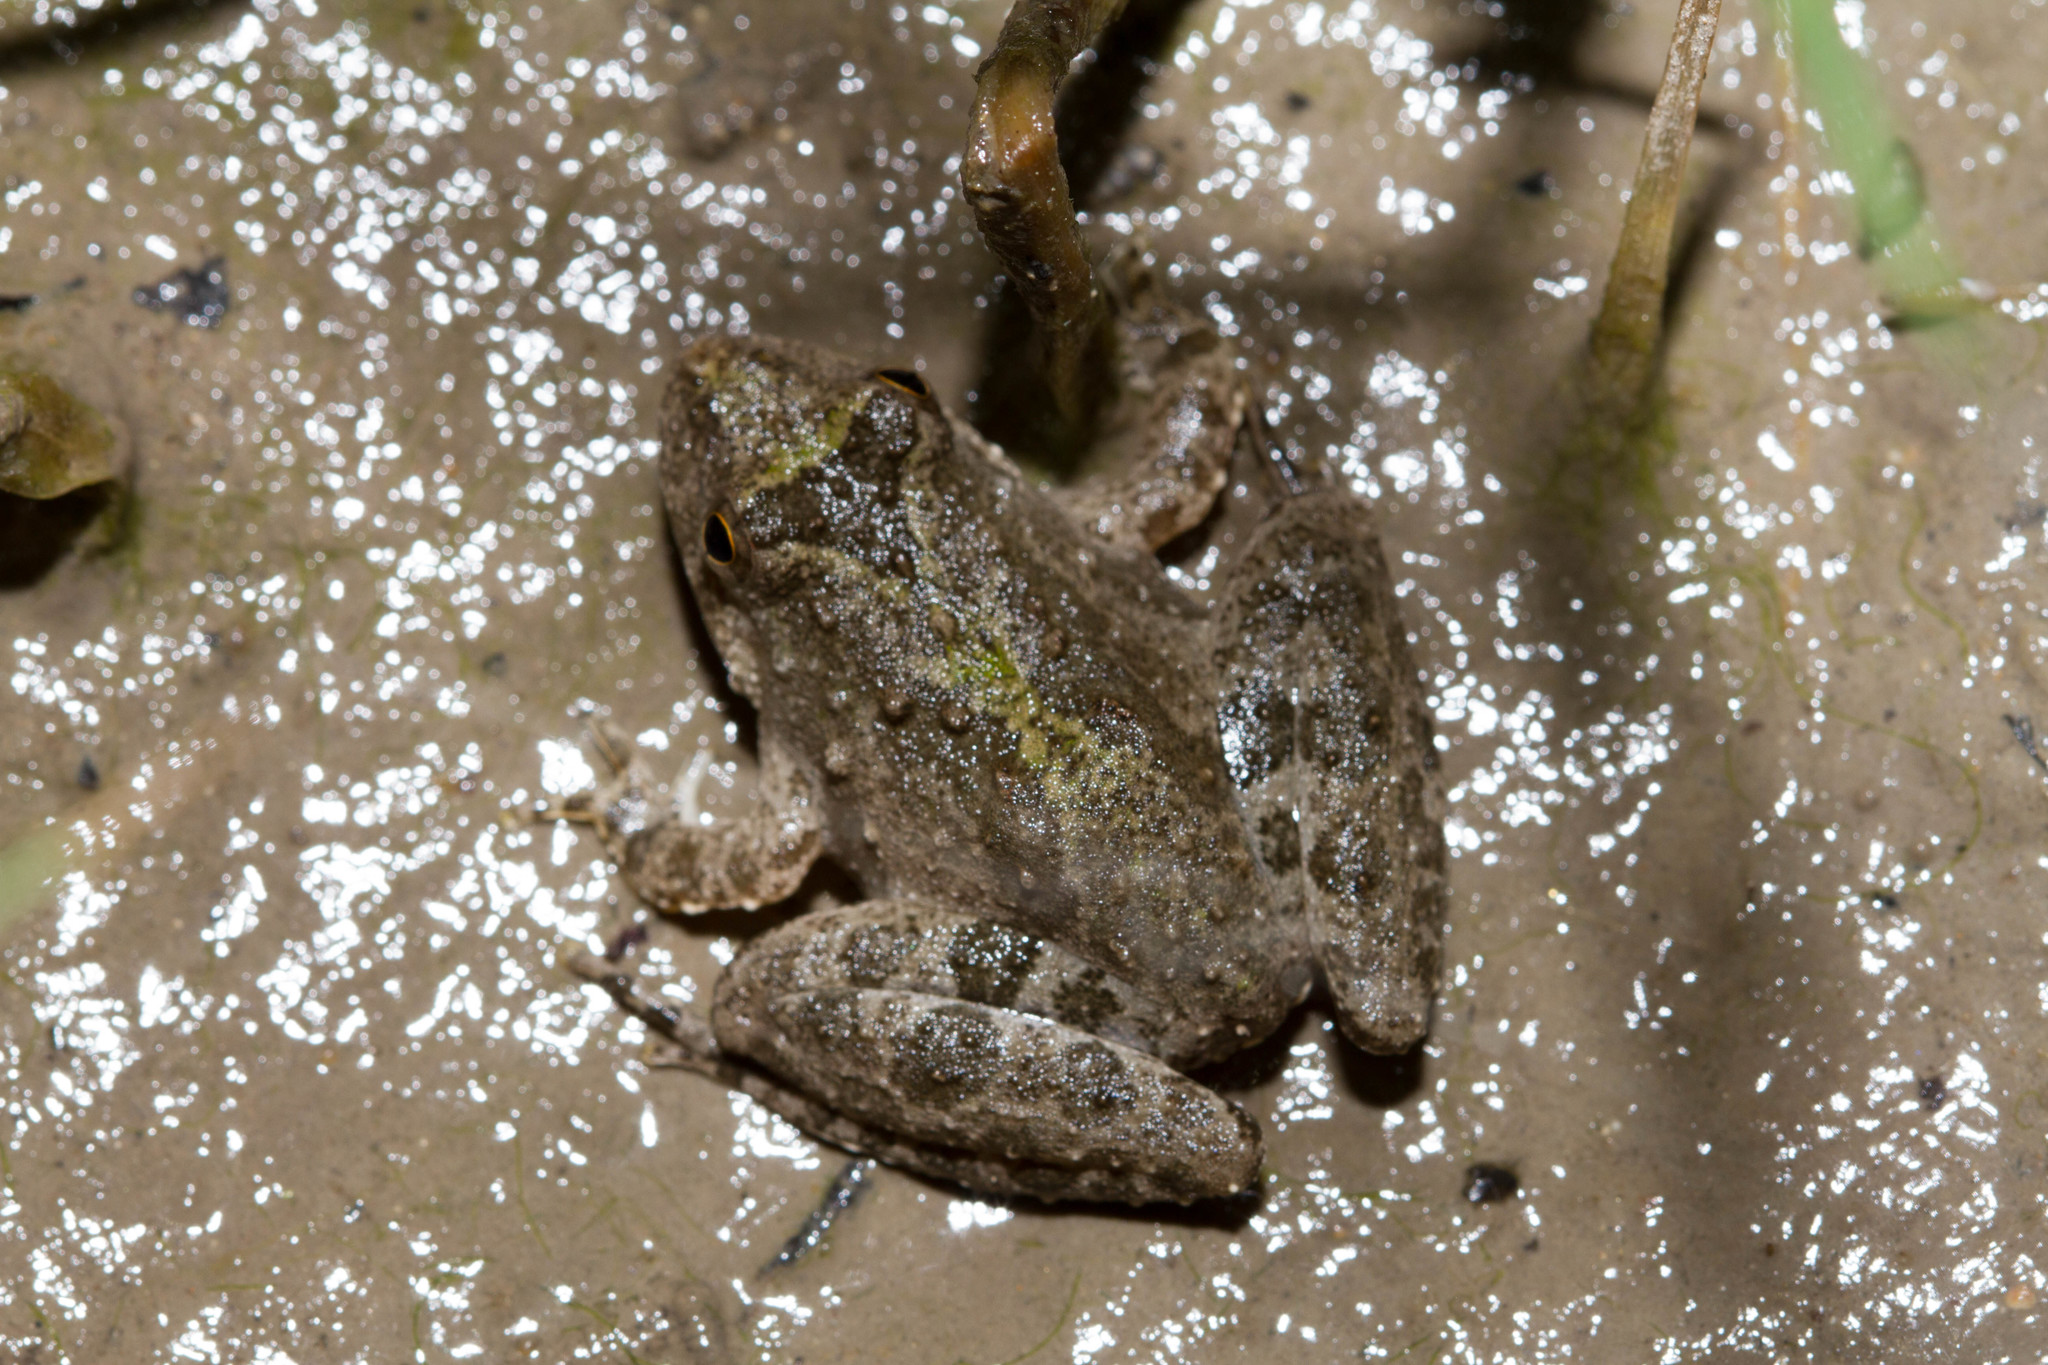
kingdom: Animalia
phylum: Chordata
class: Amphibia
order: Anura
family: Hylidae
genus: Acris
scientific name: Acris blanchardi
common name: Blanchard's cricket frog
